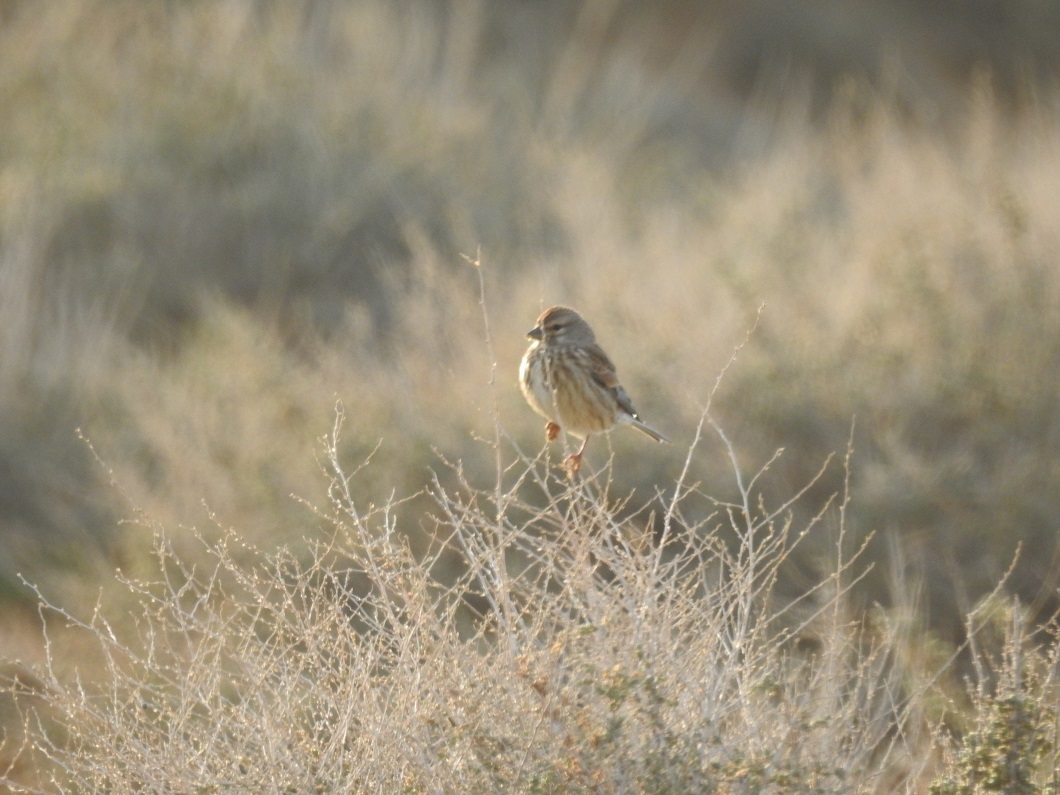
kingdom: Animalia
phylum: Chordata
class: Aves
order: Passeriformes
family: Fringillidae
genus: Linaria
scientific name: Linaria cannabina
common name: Common linnet
